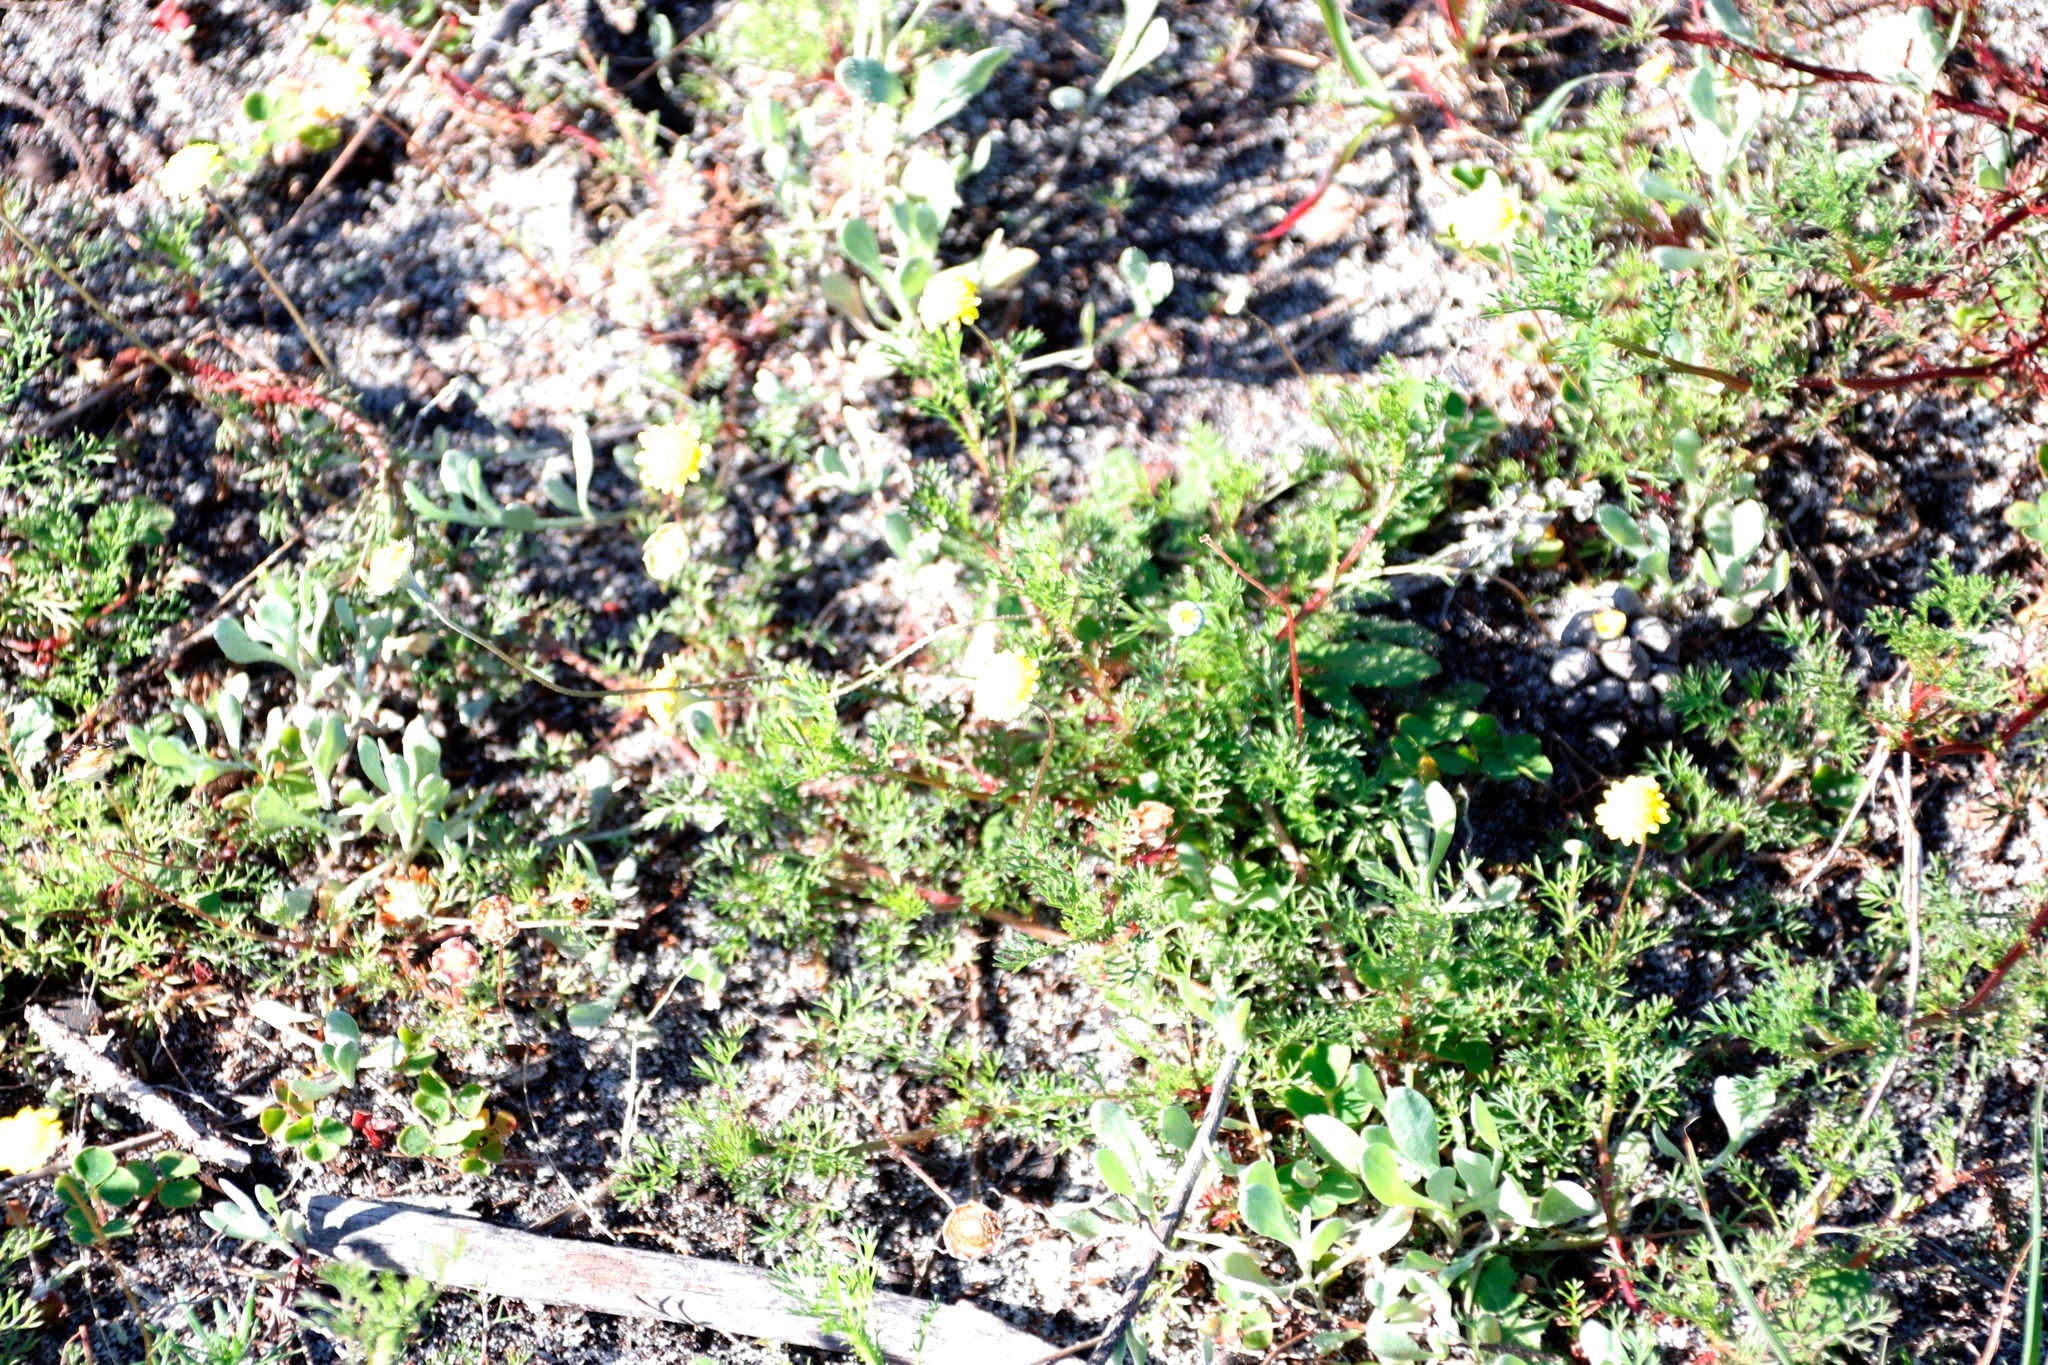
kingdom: Plantae
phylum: Tracheophyta
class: Magnoliopsida
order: Asterales
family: Asteraceae
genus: Cotula
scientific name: Cotula pruinosa
